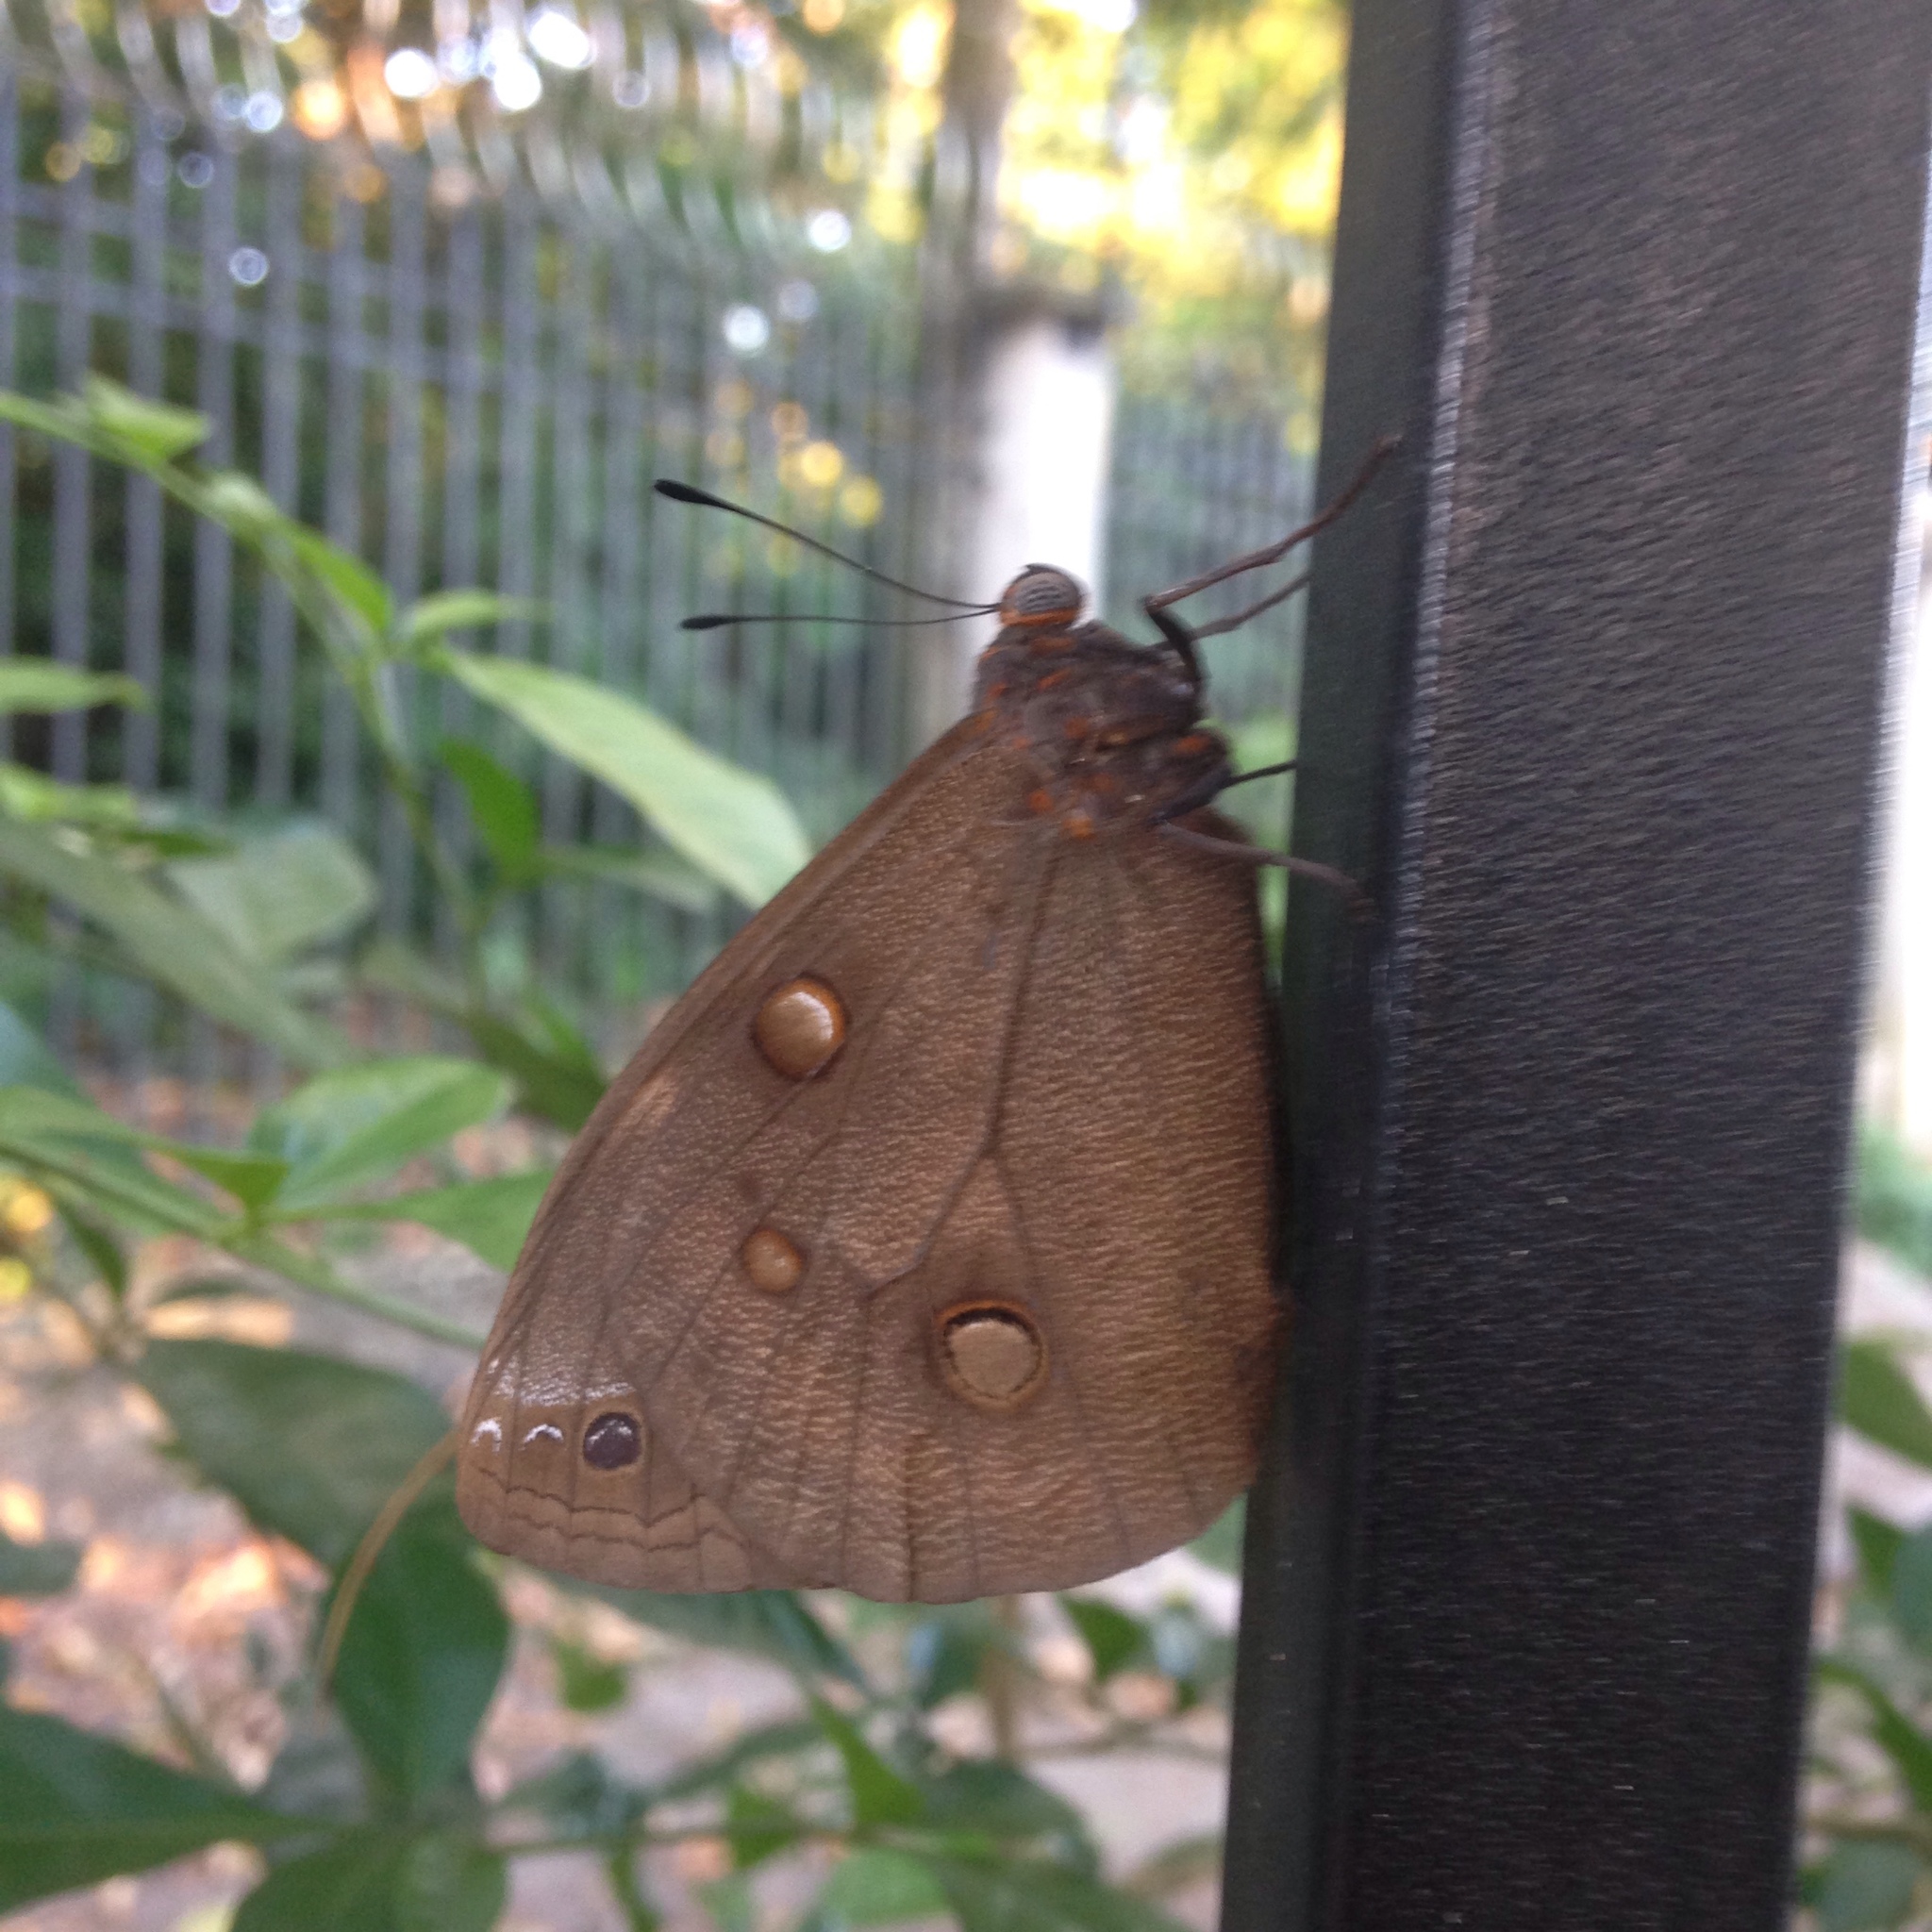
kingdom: Animalia
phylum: Arthropoda
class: Insecta
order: Lepidoptera
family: Nymphalidae
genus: Brassolis
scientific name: Brassolis sophorae
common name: Coconut caterpillar
